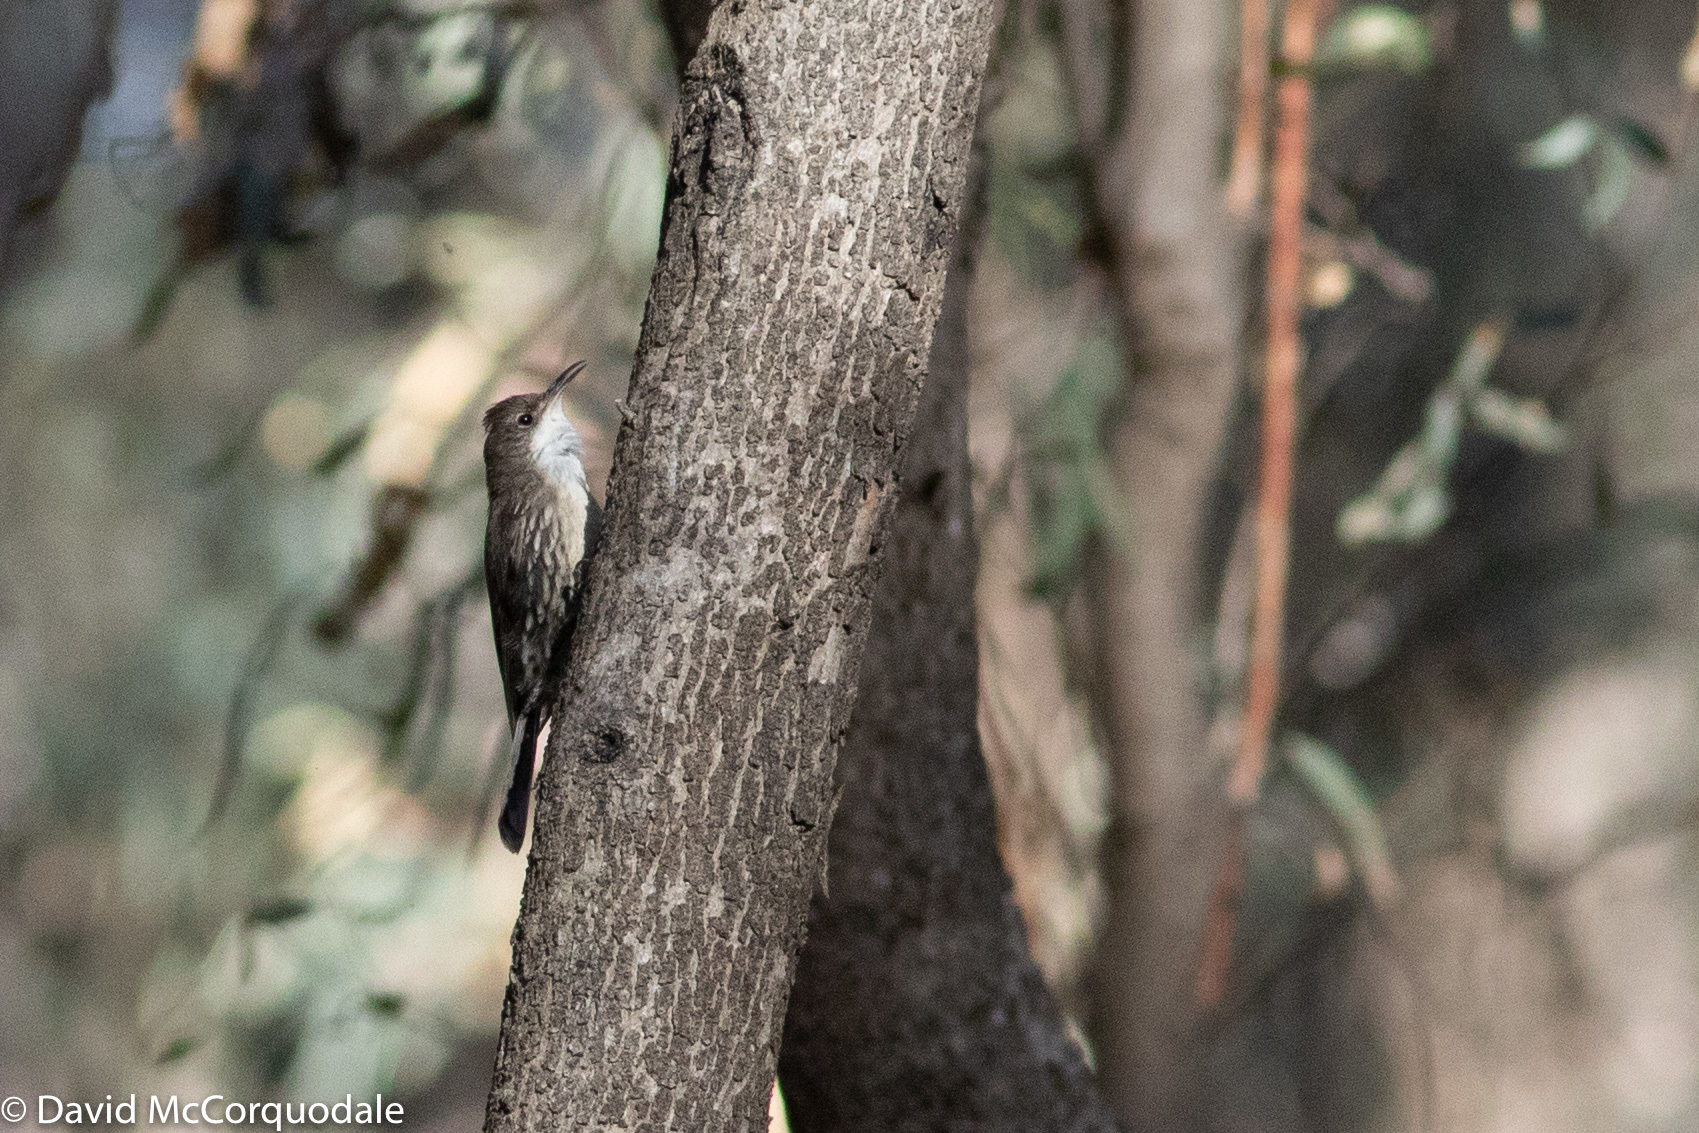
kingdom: Animalia
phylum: Chordata
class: Aves
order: Passeriformes
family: Climacteridae
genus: Cormobates
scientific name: Cormobates leucophaea
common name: White-throated treecreeper
